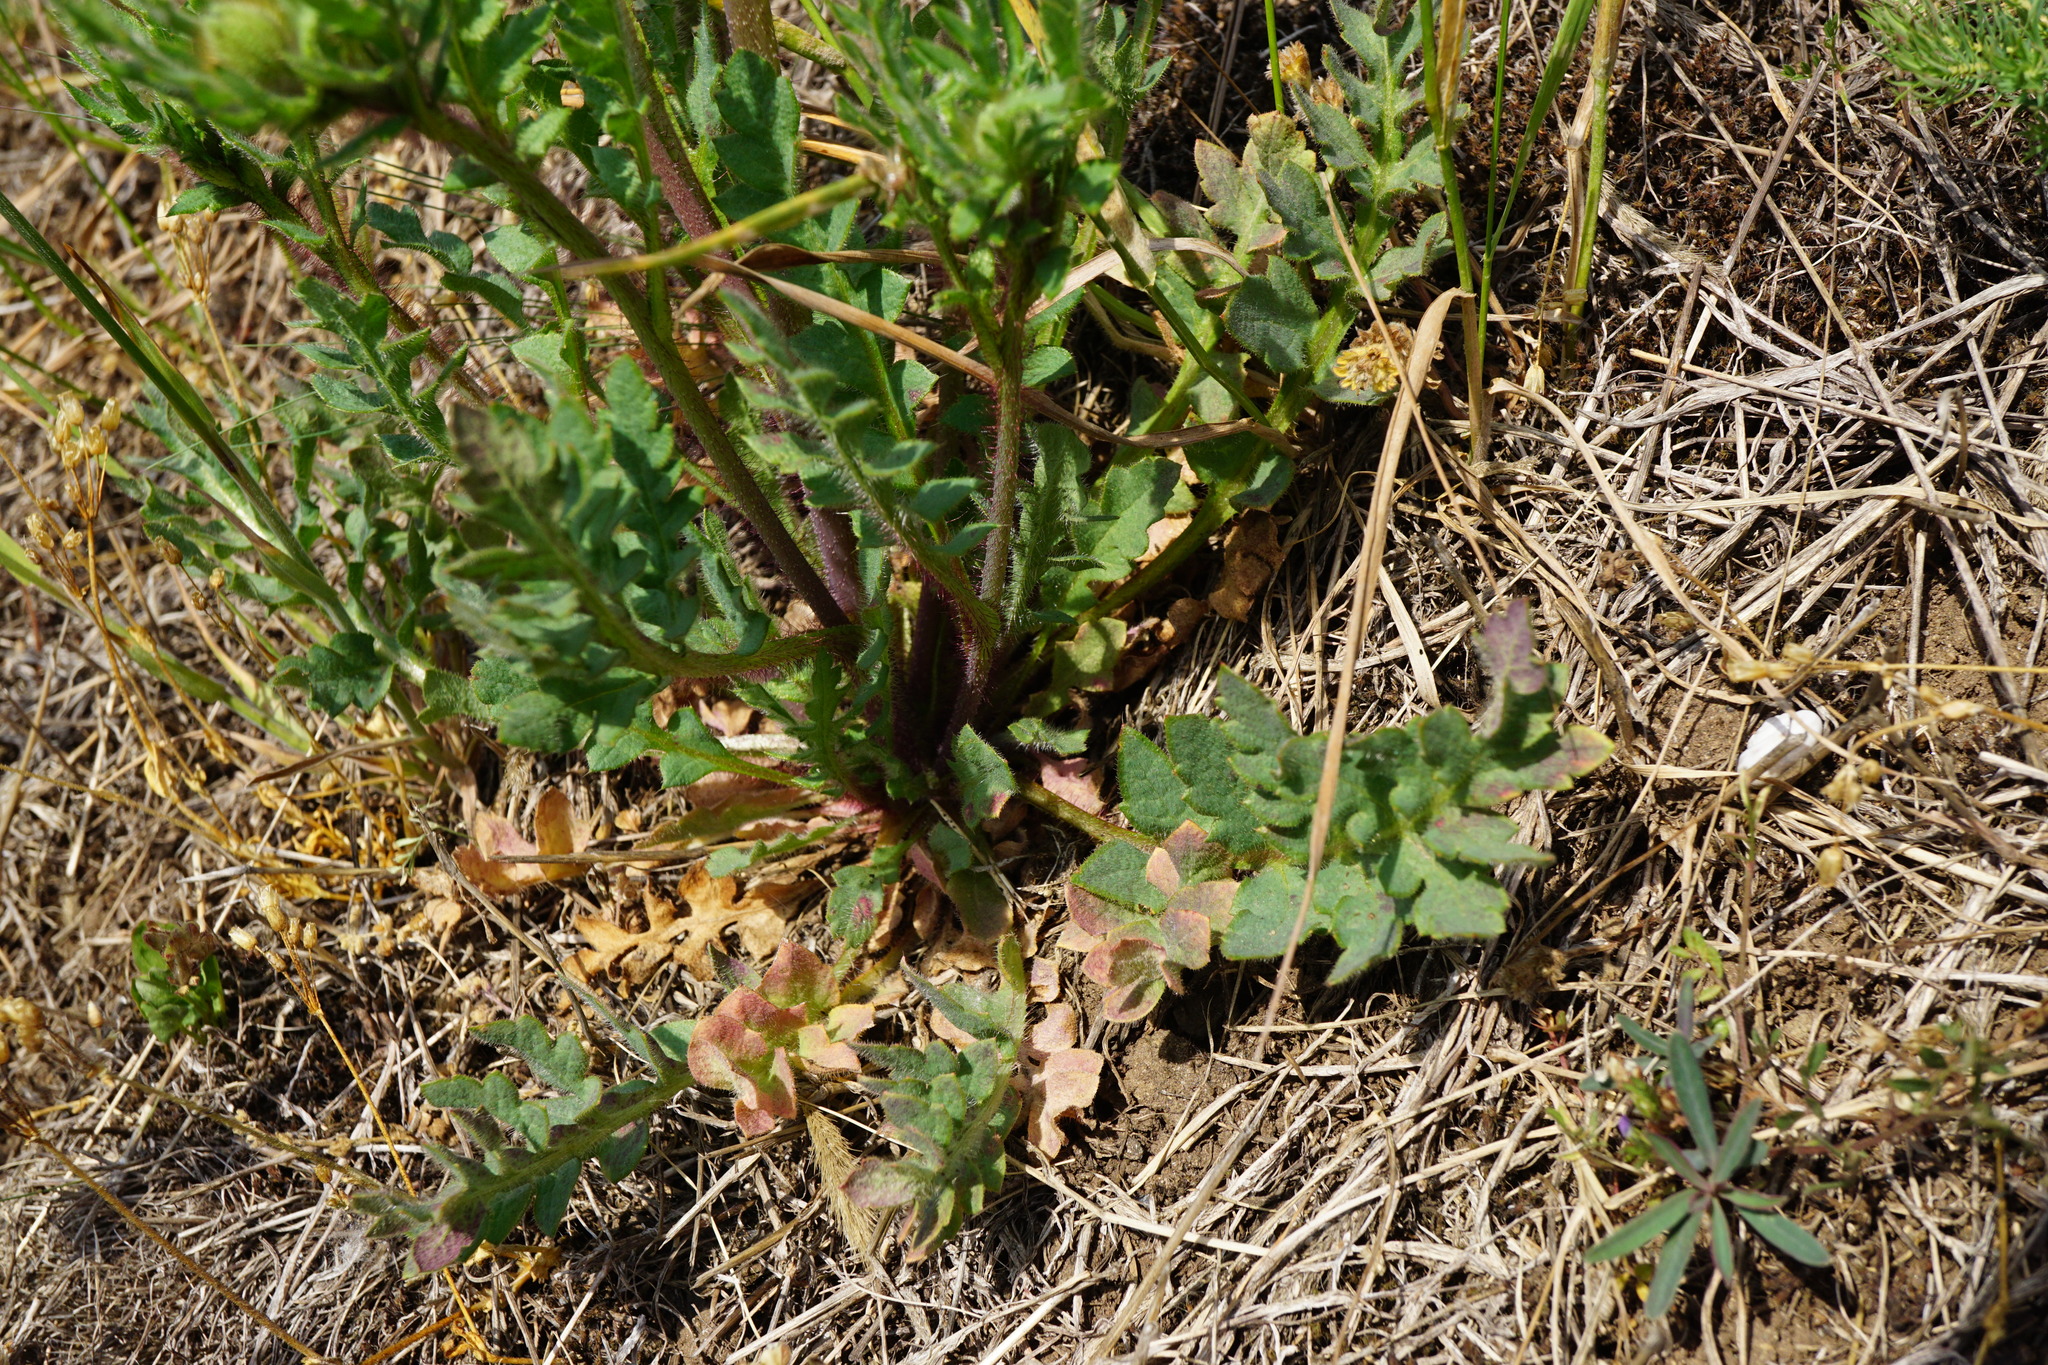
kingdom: Plantae
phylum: Tracheophyta
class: Magnoliopsida
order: Ranunculales
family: Papaveraceae
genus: Papaver
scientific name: Papaver rhoeas
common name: Corn poppy
